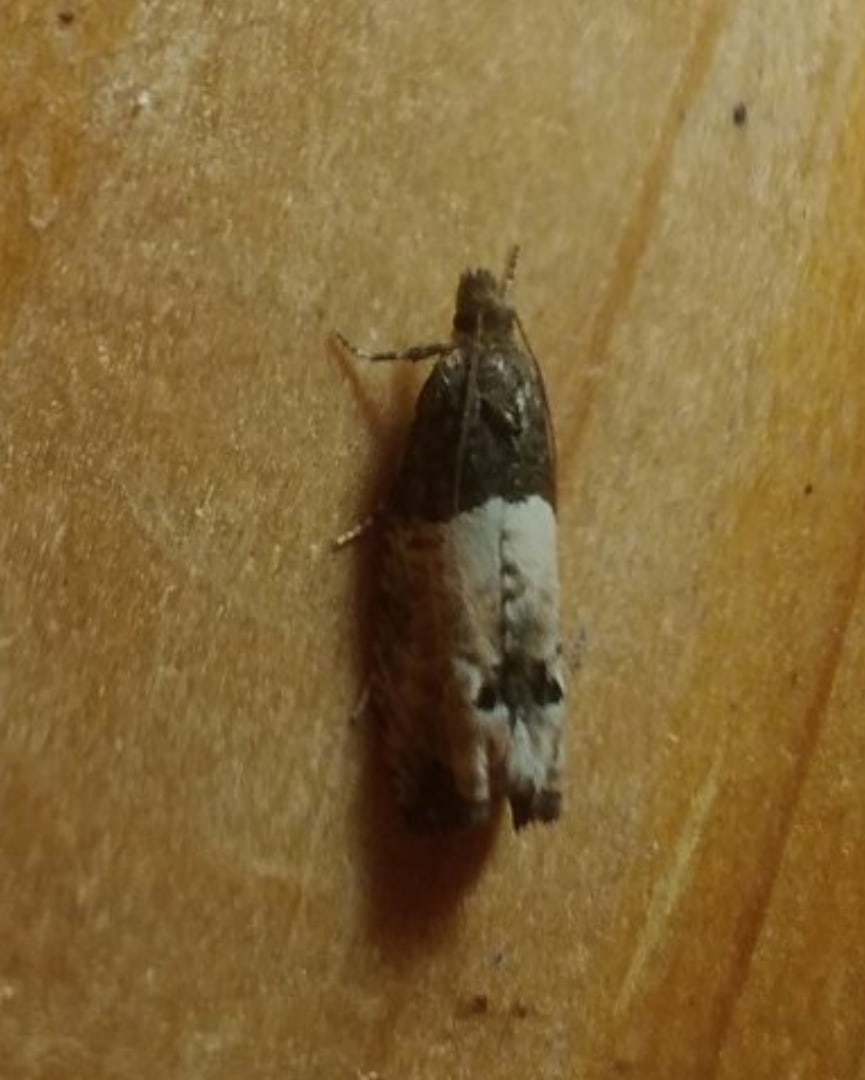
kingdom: Animalia
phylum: Arthropoda
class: Insecta
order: Lepidoptera
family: Tortricidae
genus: Epiblema
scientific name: Epiblema aquana
